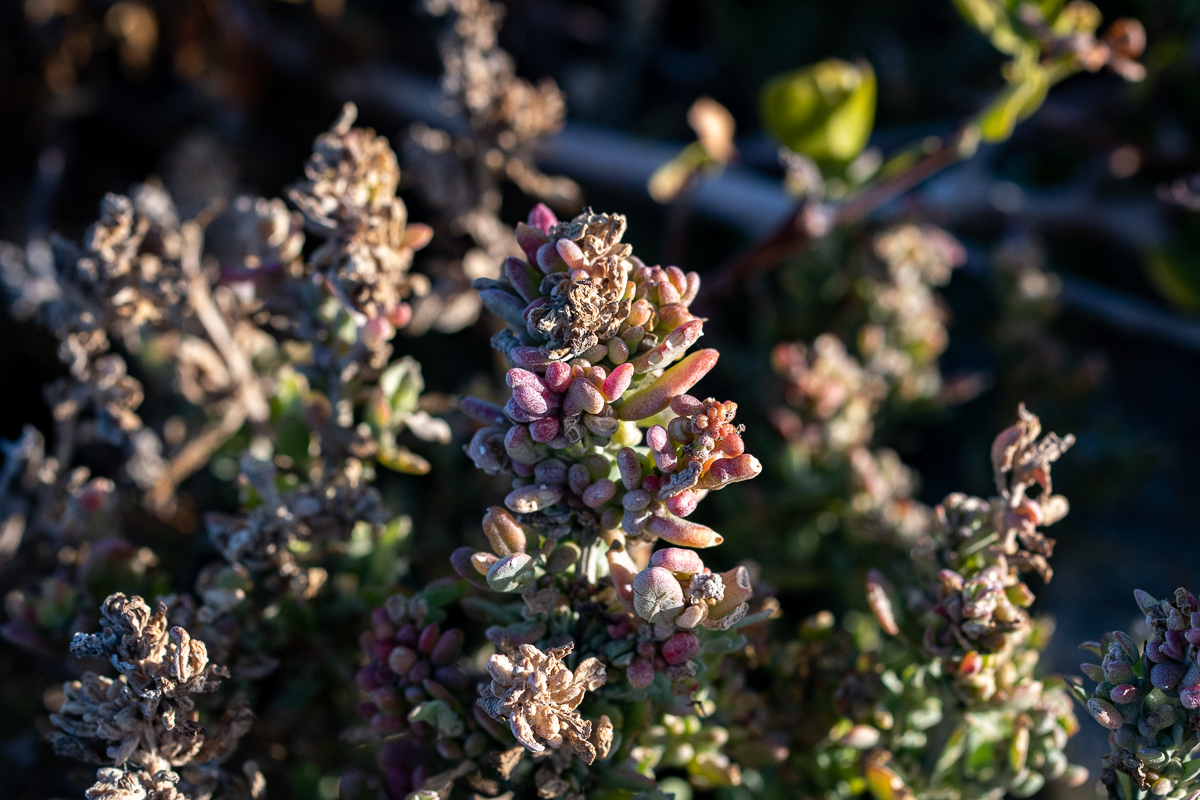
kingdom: Plantae
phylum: Tracheophyta
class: Magnoliopsida
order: Caryophyllales
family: Aizoaceae
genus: Tetragonia
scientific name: Tetragonia fruticosa
